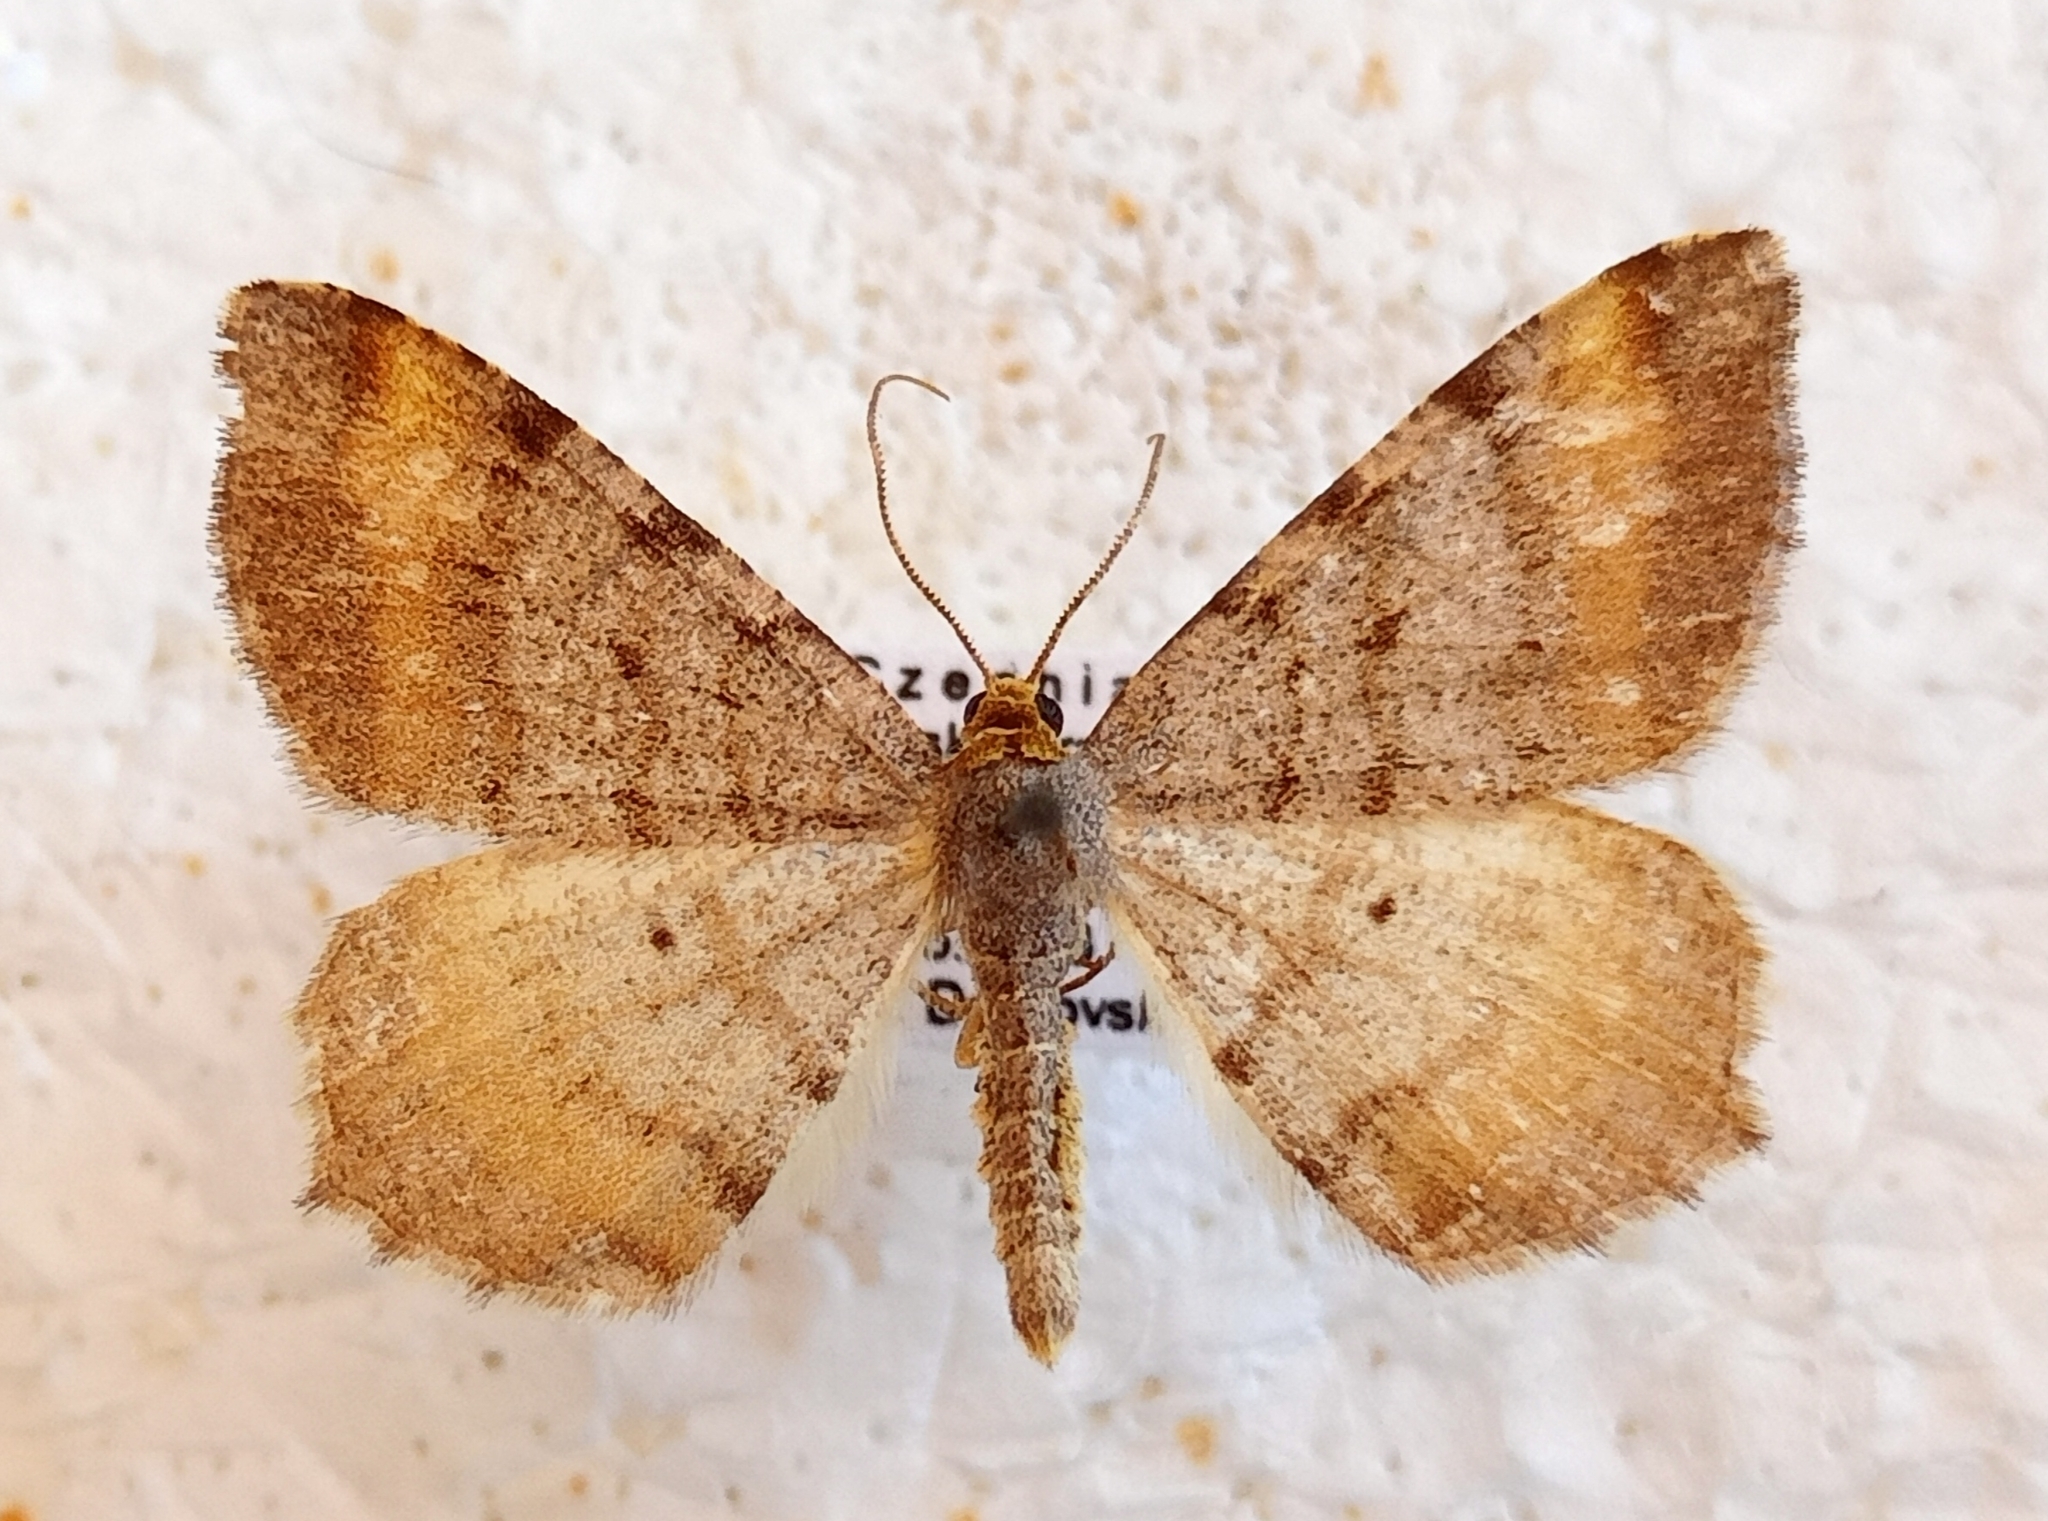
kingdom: Animalia
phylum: Arthropoda
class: Insecta
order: Lepidoptera
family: Geometridae
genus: Macaria
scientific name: Macaria liturata
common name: Tawny-barred angle
